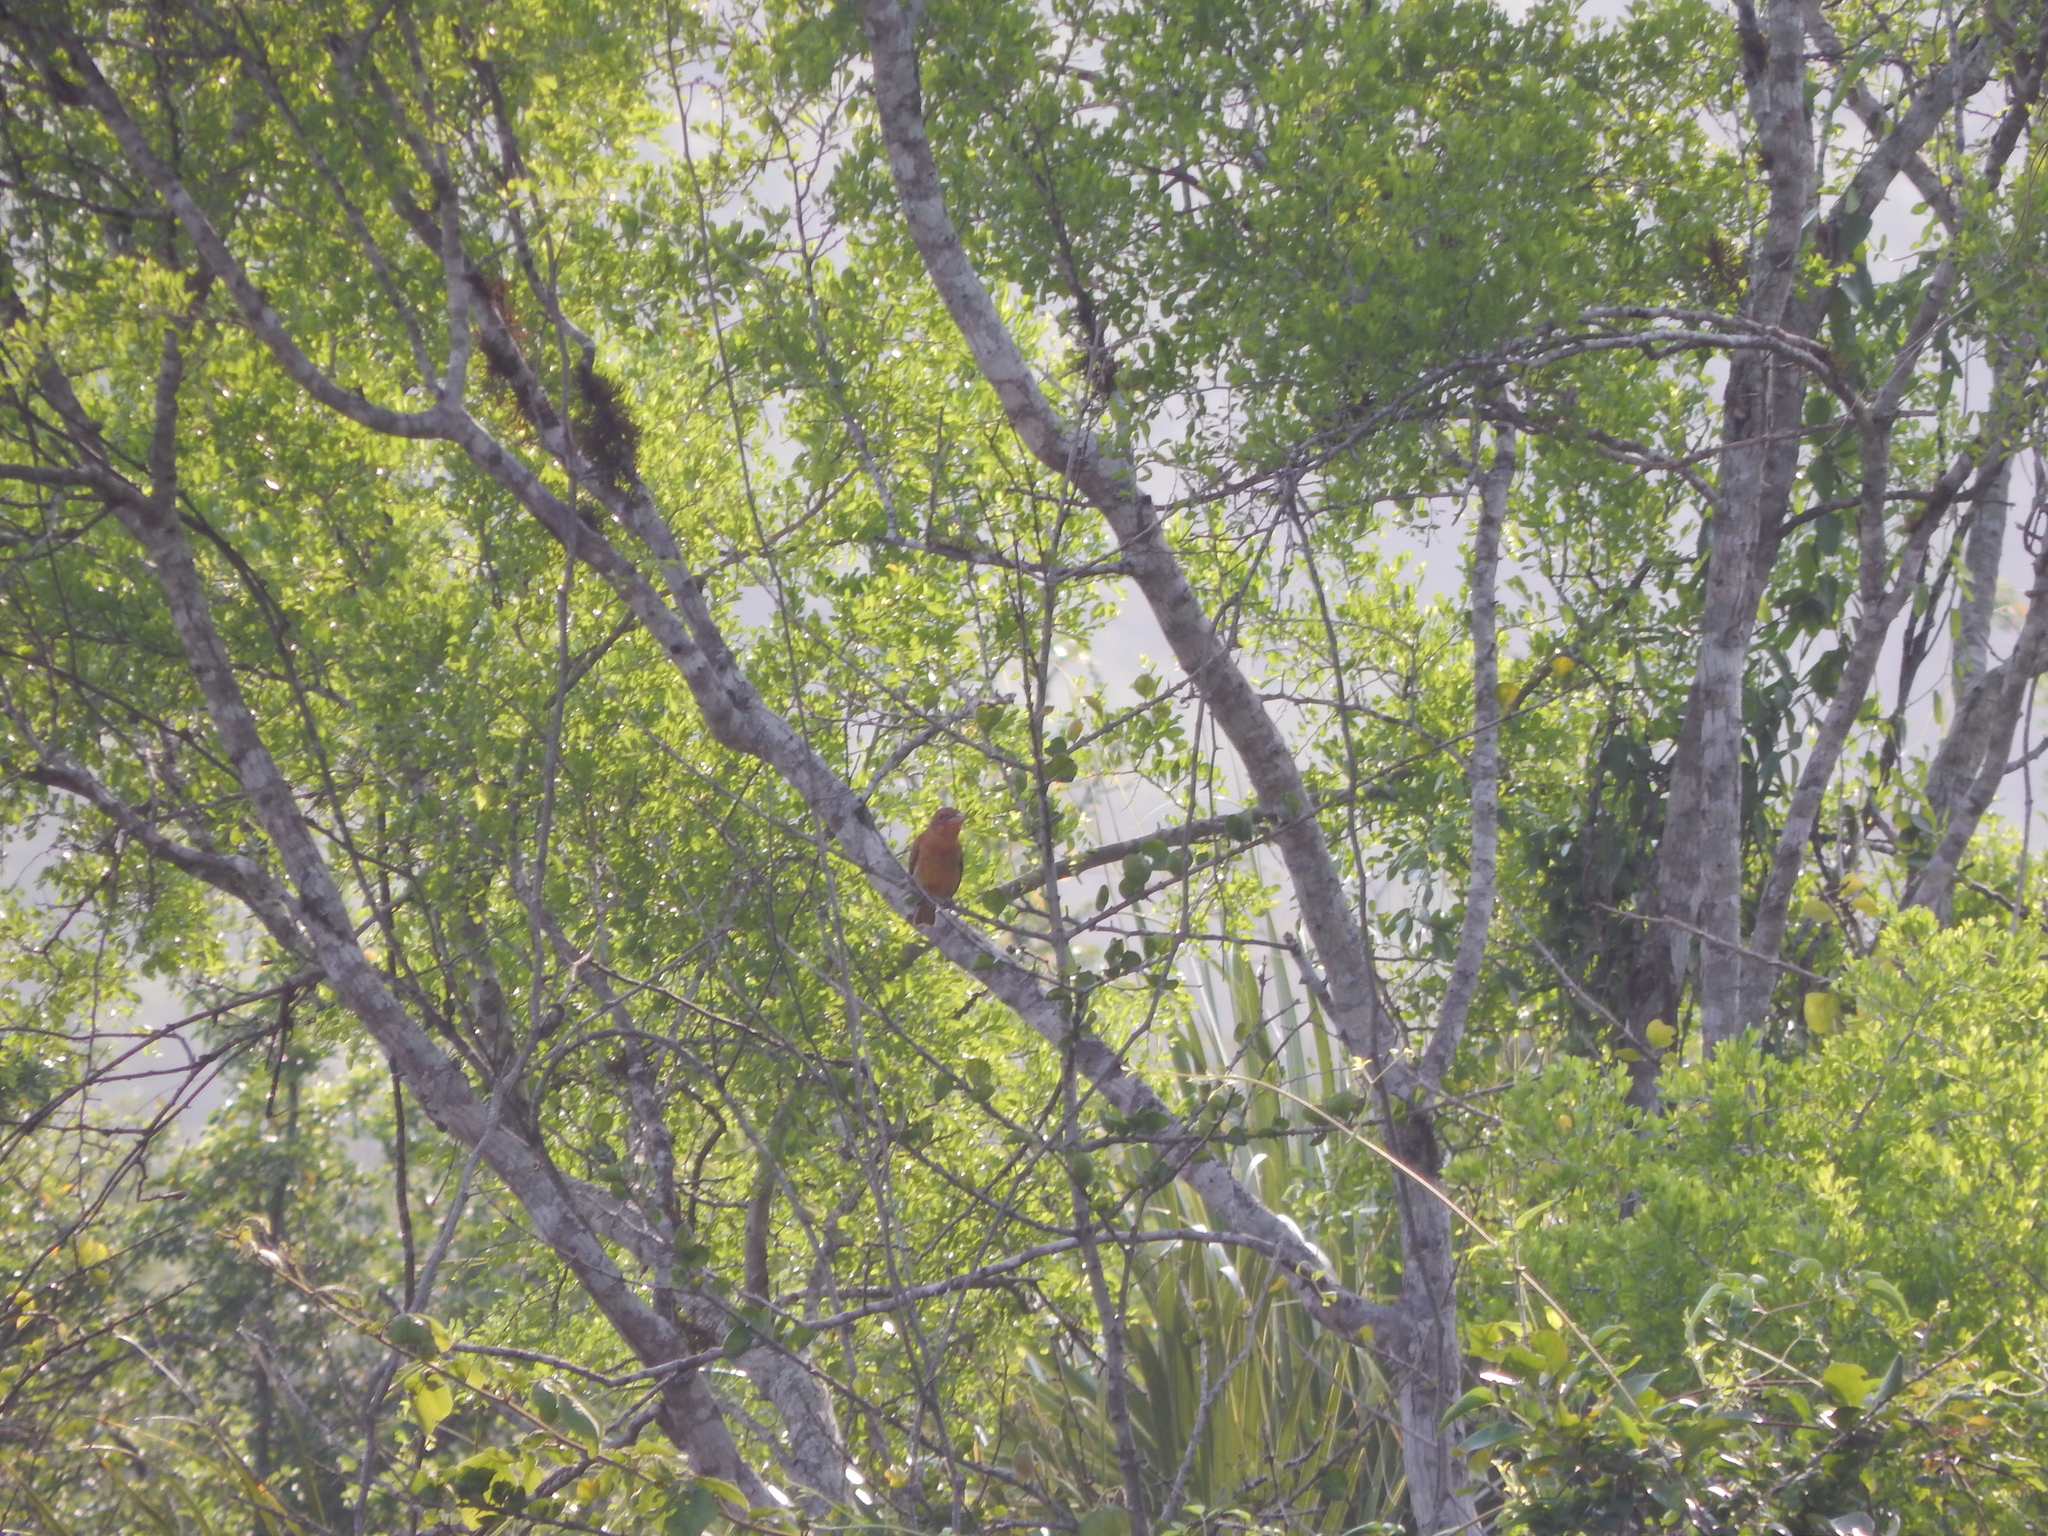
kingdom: Animalia
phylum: Chordata
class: Aves
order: Passeriformes
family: Cardinalidae
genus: Piranga
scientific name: Piranga rubra
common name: Summer tanager
